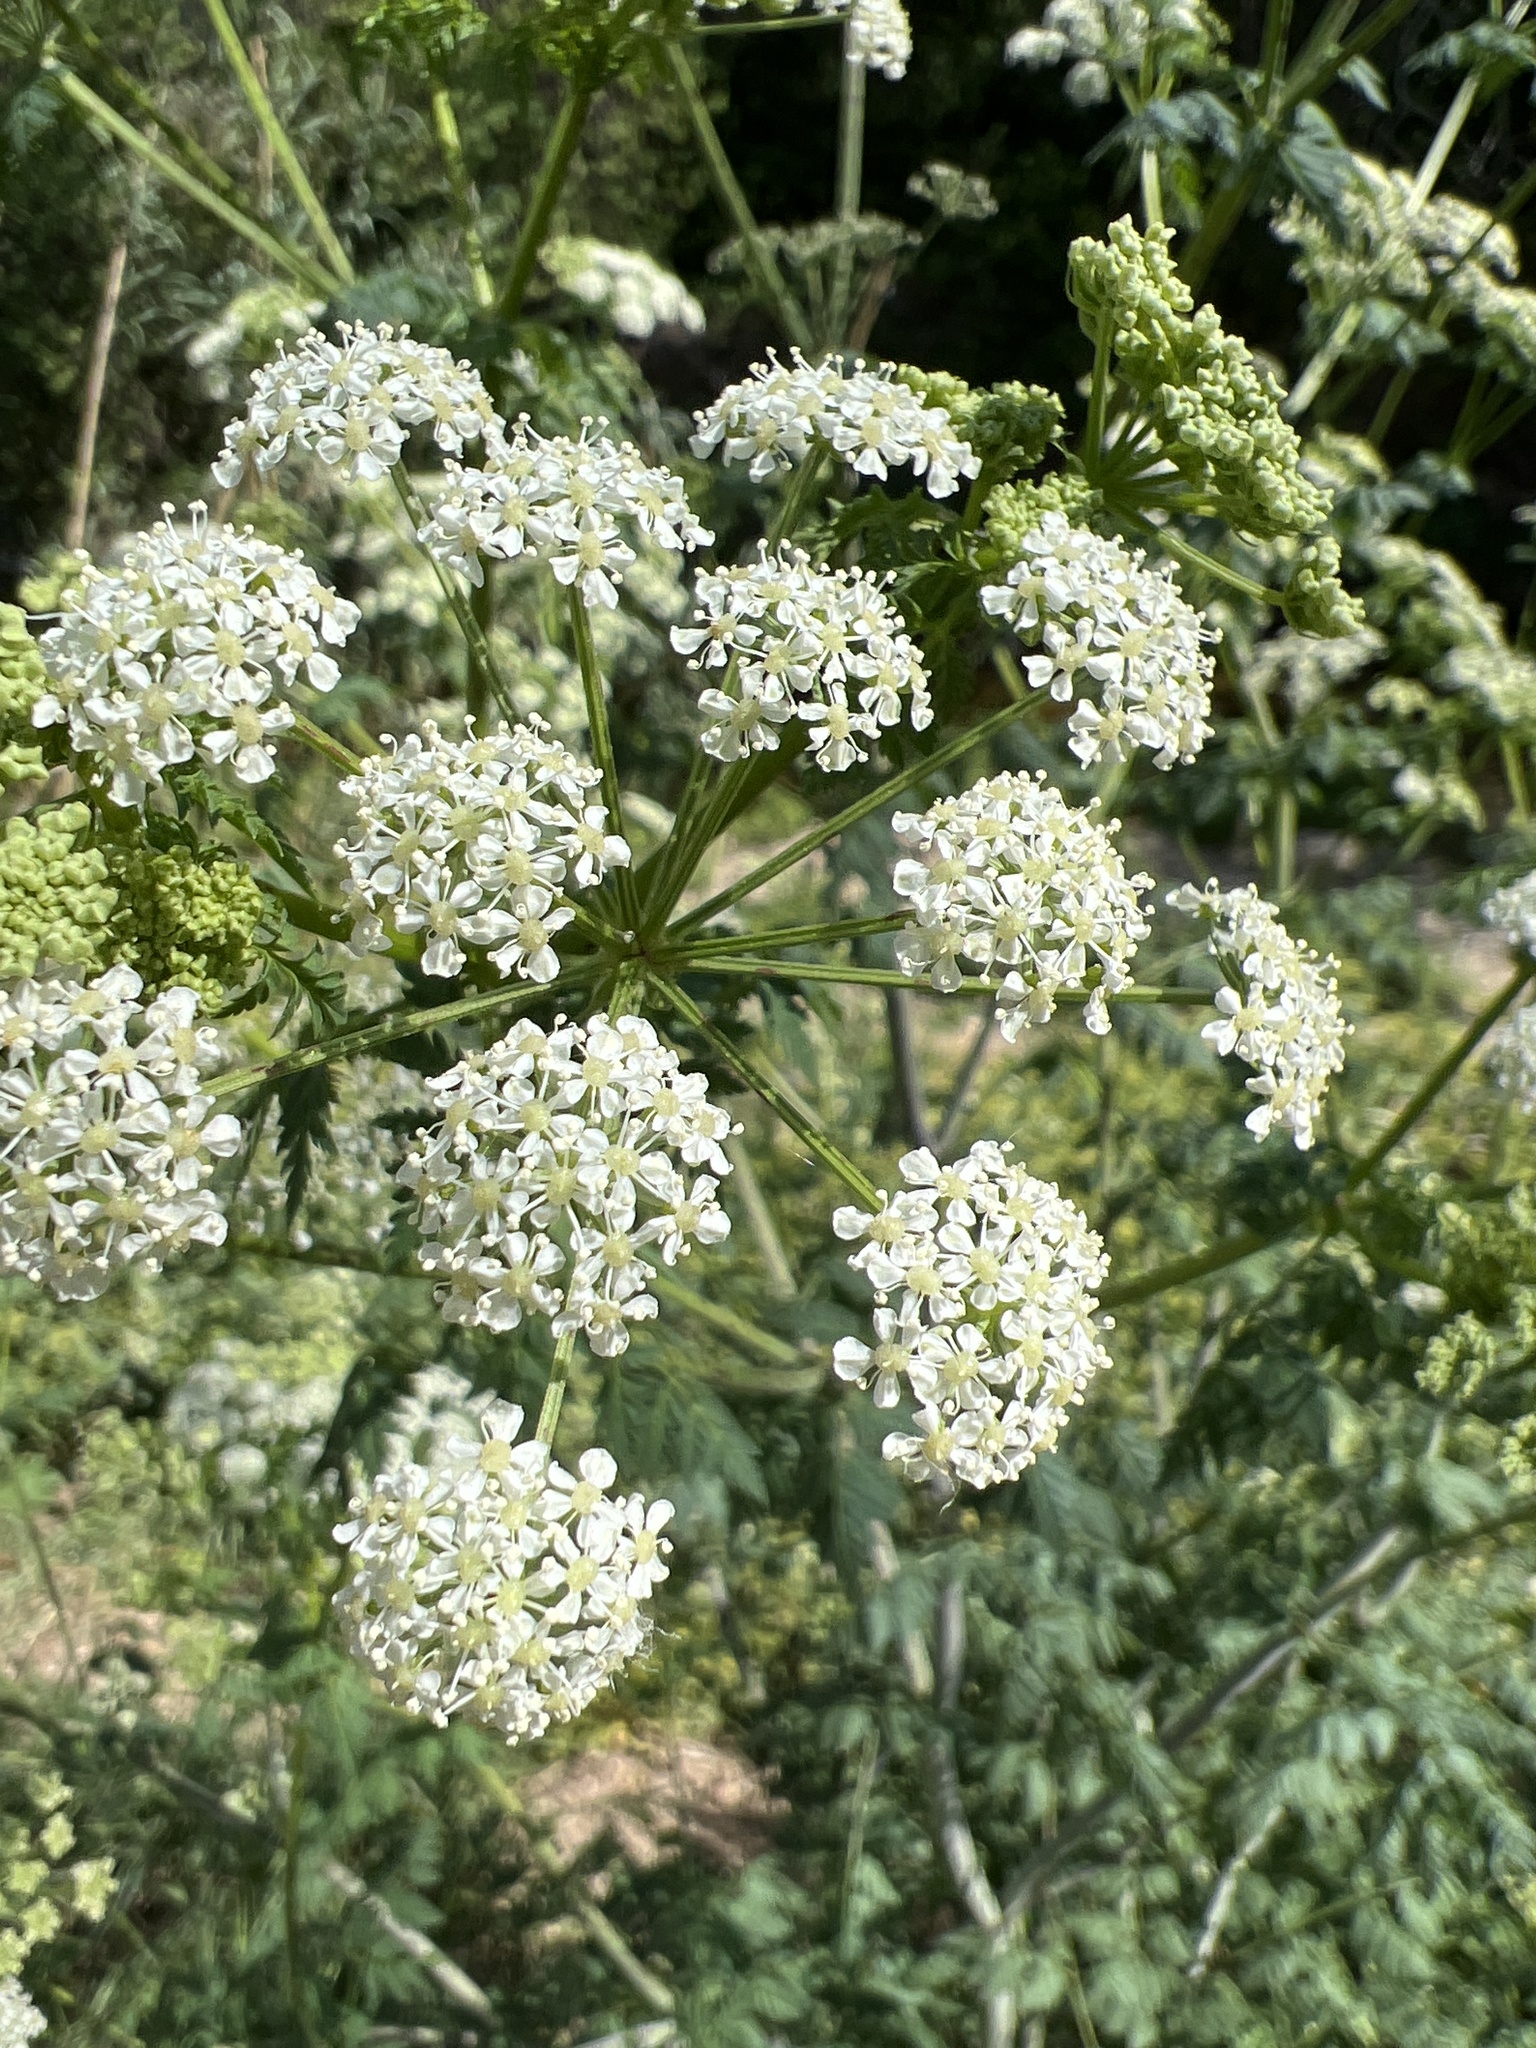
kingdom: Plantae
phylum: Tracheophyta
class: Magnoliopsida
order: Apiales
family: Apiaceae
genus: Conium
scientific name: Conium maculatum
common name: Hemlock
